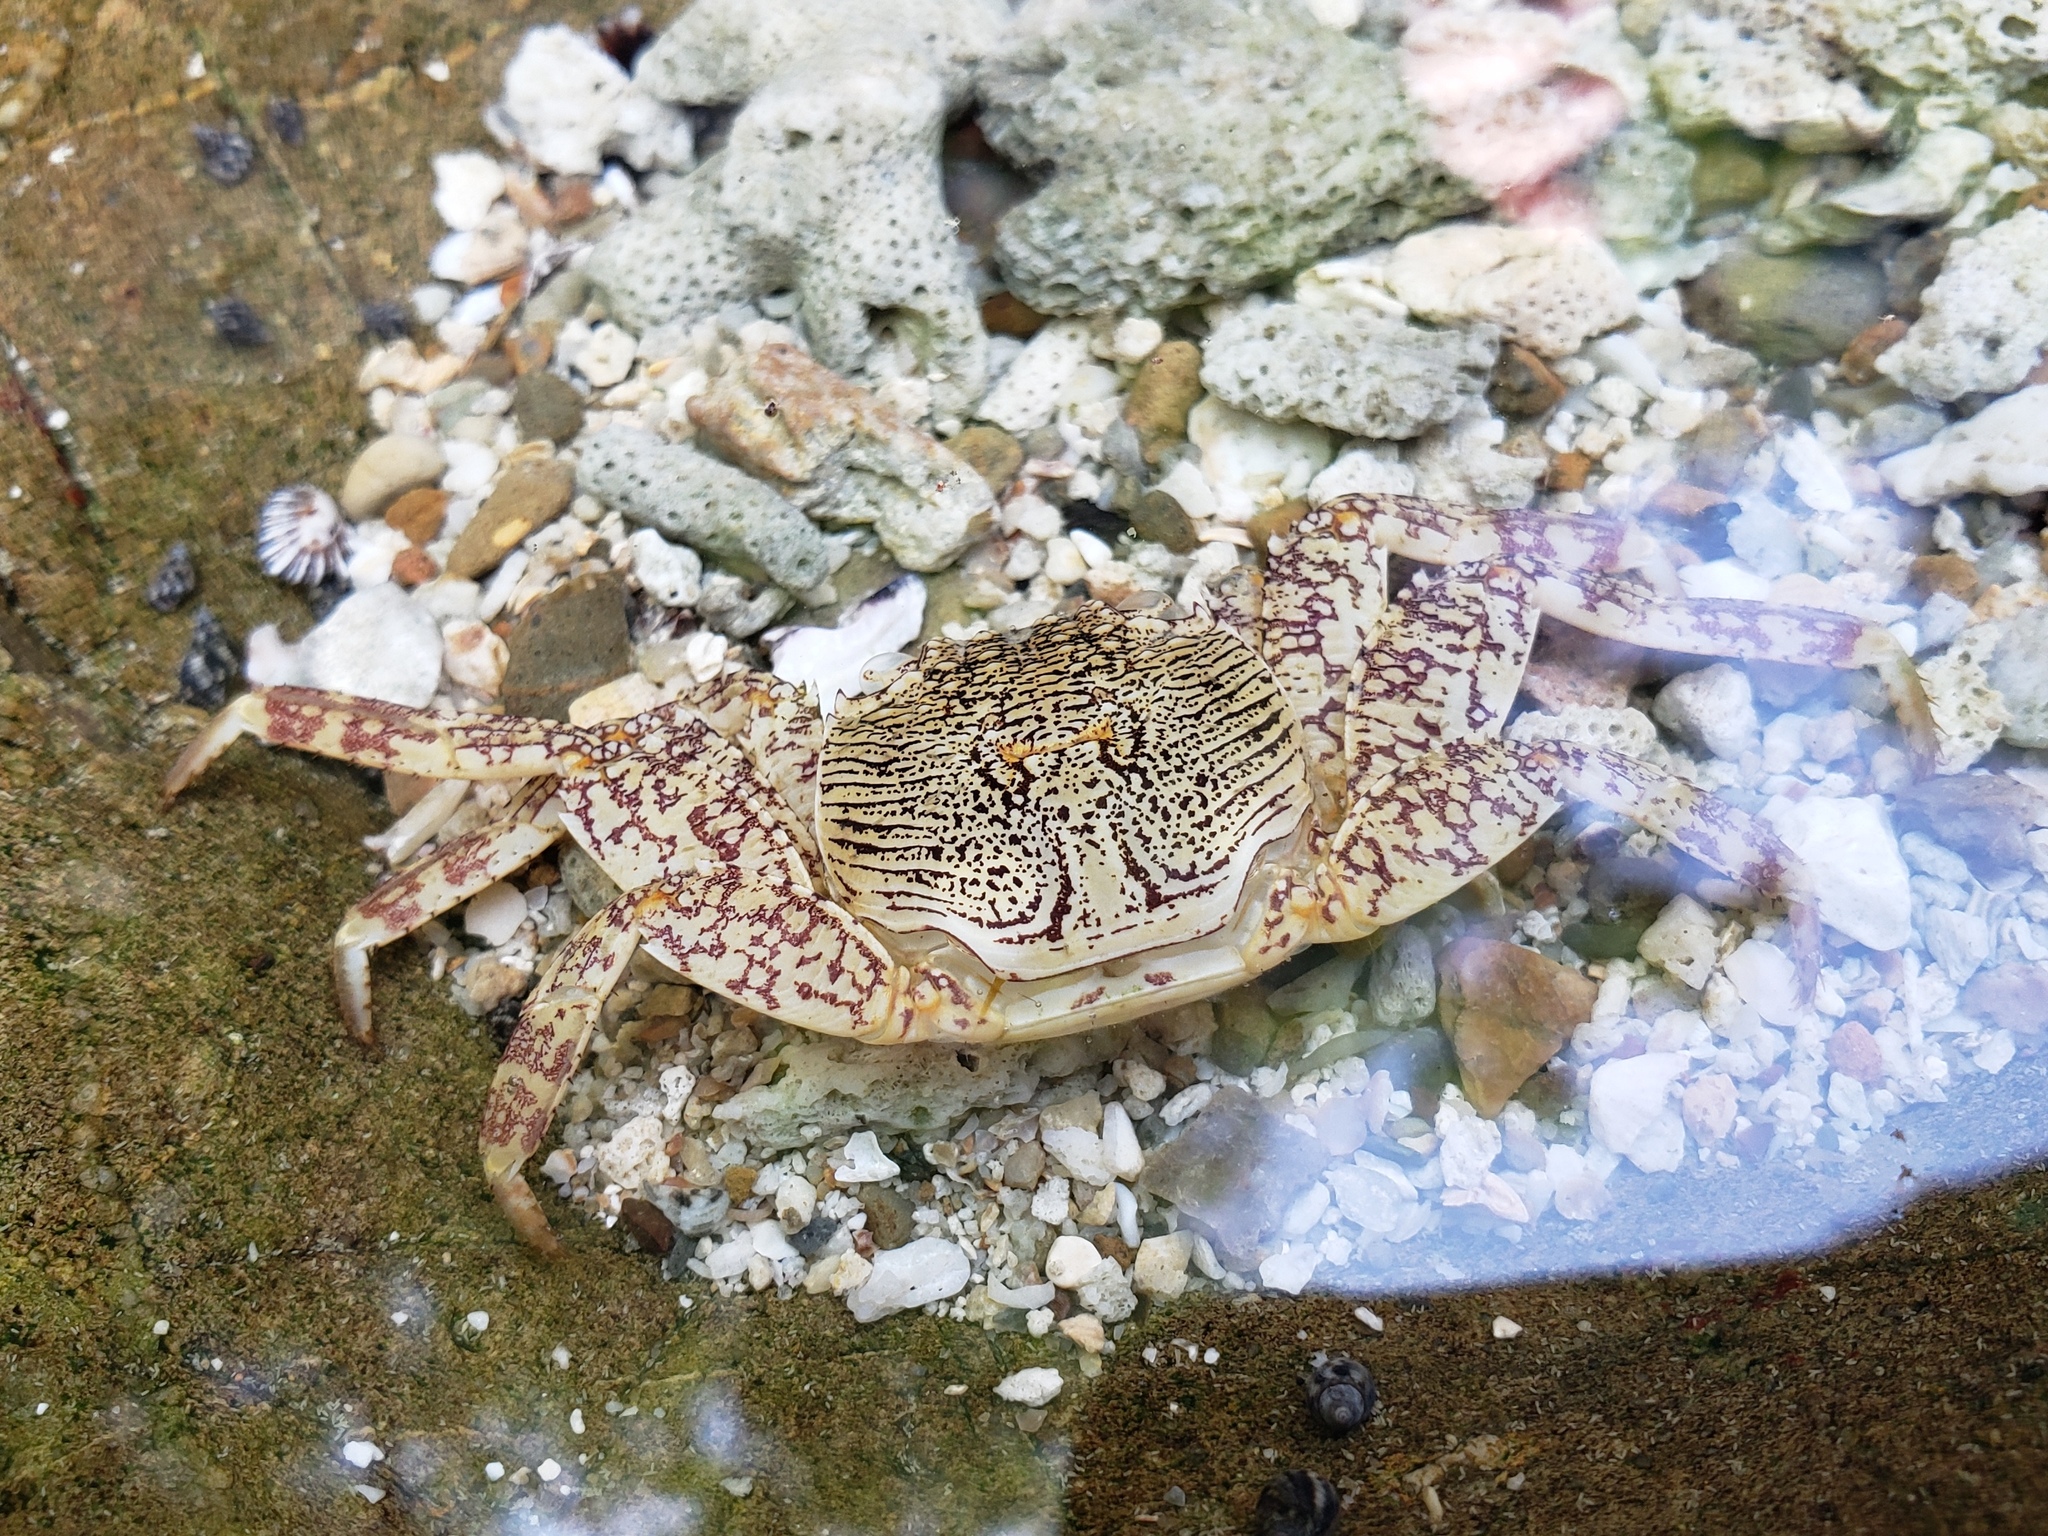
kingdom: Animalia
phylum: Arthropoda
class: Malacostraca
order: Decapoda
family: Grapsidae
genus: Grapsus
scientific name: Grapsus albolineatus
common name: Mottled lightfoot crab
